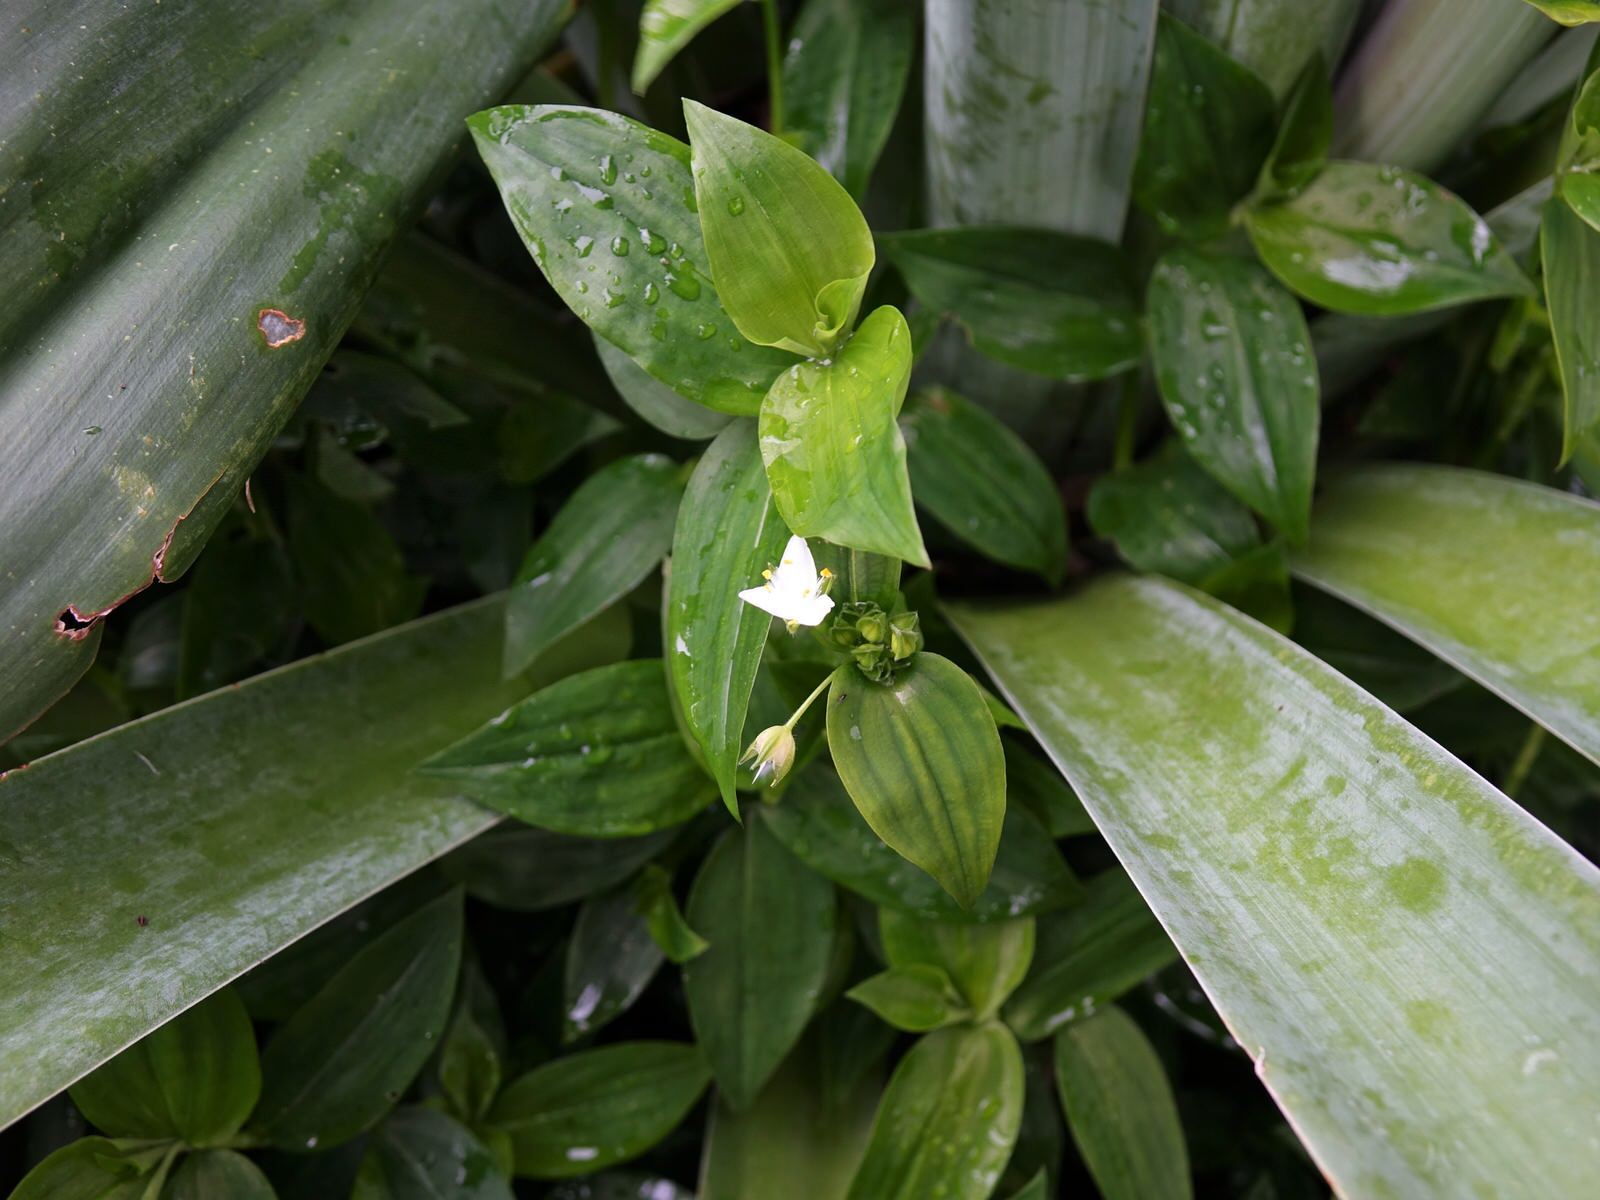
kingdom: Plantae
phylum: Tracheophyta
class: Liliopsida
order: Commelinales
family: Commelinaceae
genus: Tradescantia
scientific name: Tradescantia fluminensis
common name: Wandering-jew
